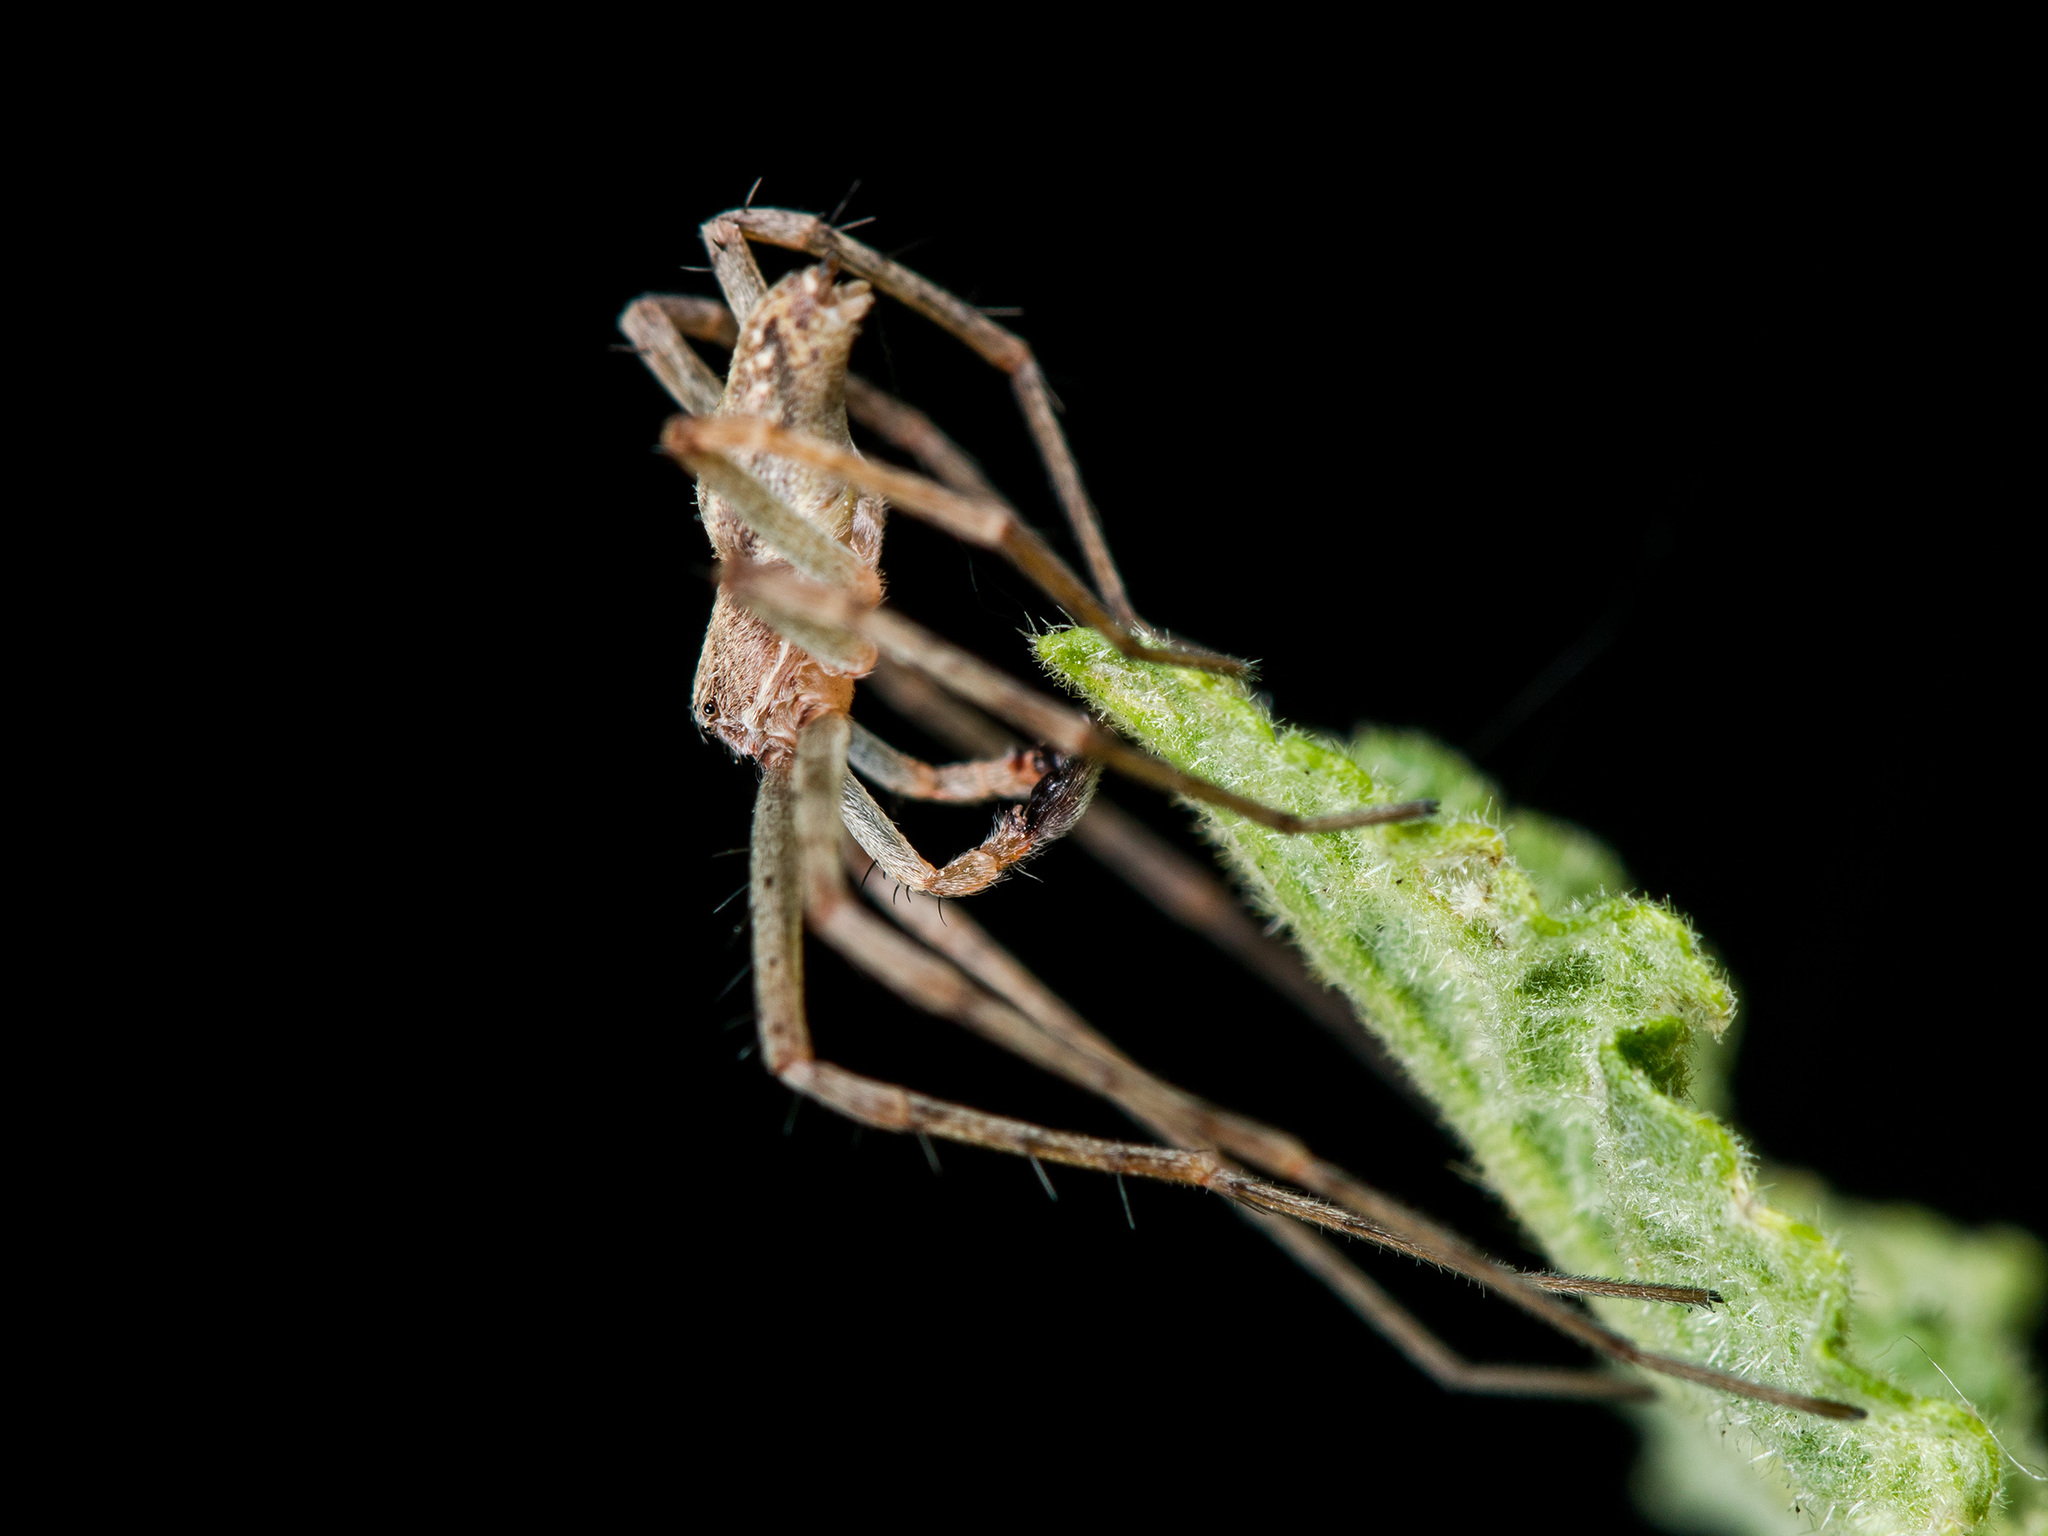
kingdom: Animalia
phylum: Arthropoda
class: Arachnida
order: Araneae
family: Philodromidae
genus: Philodromus
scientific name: Philodromus longipalpis
